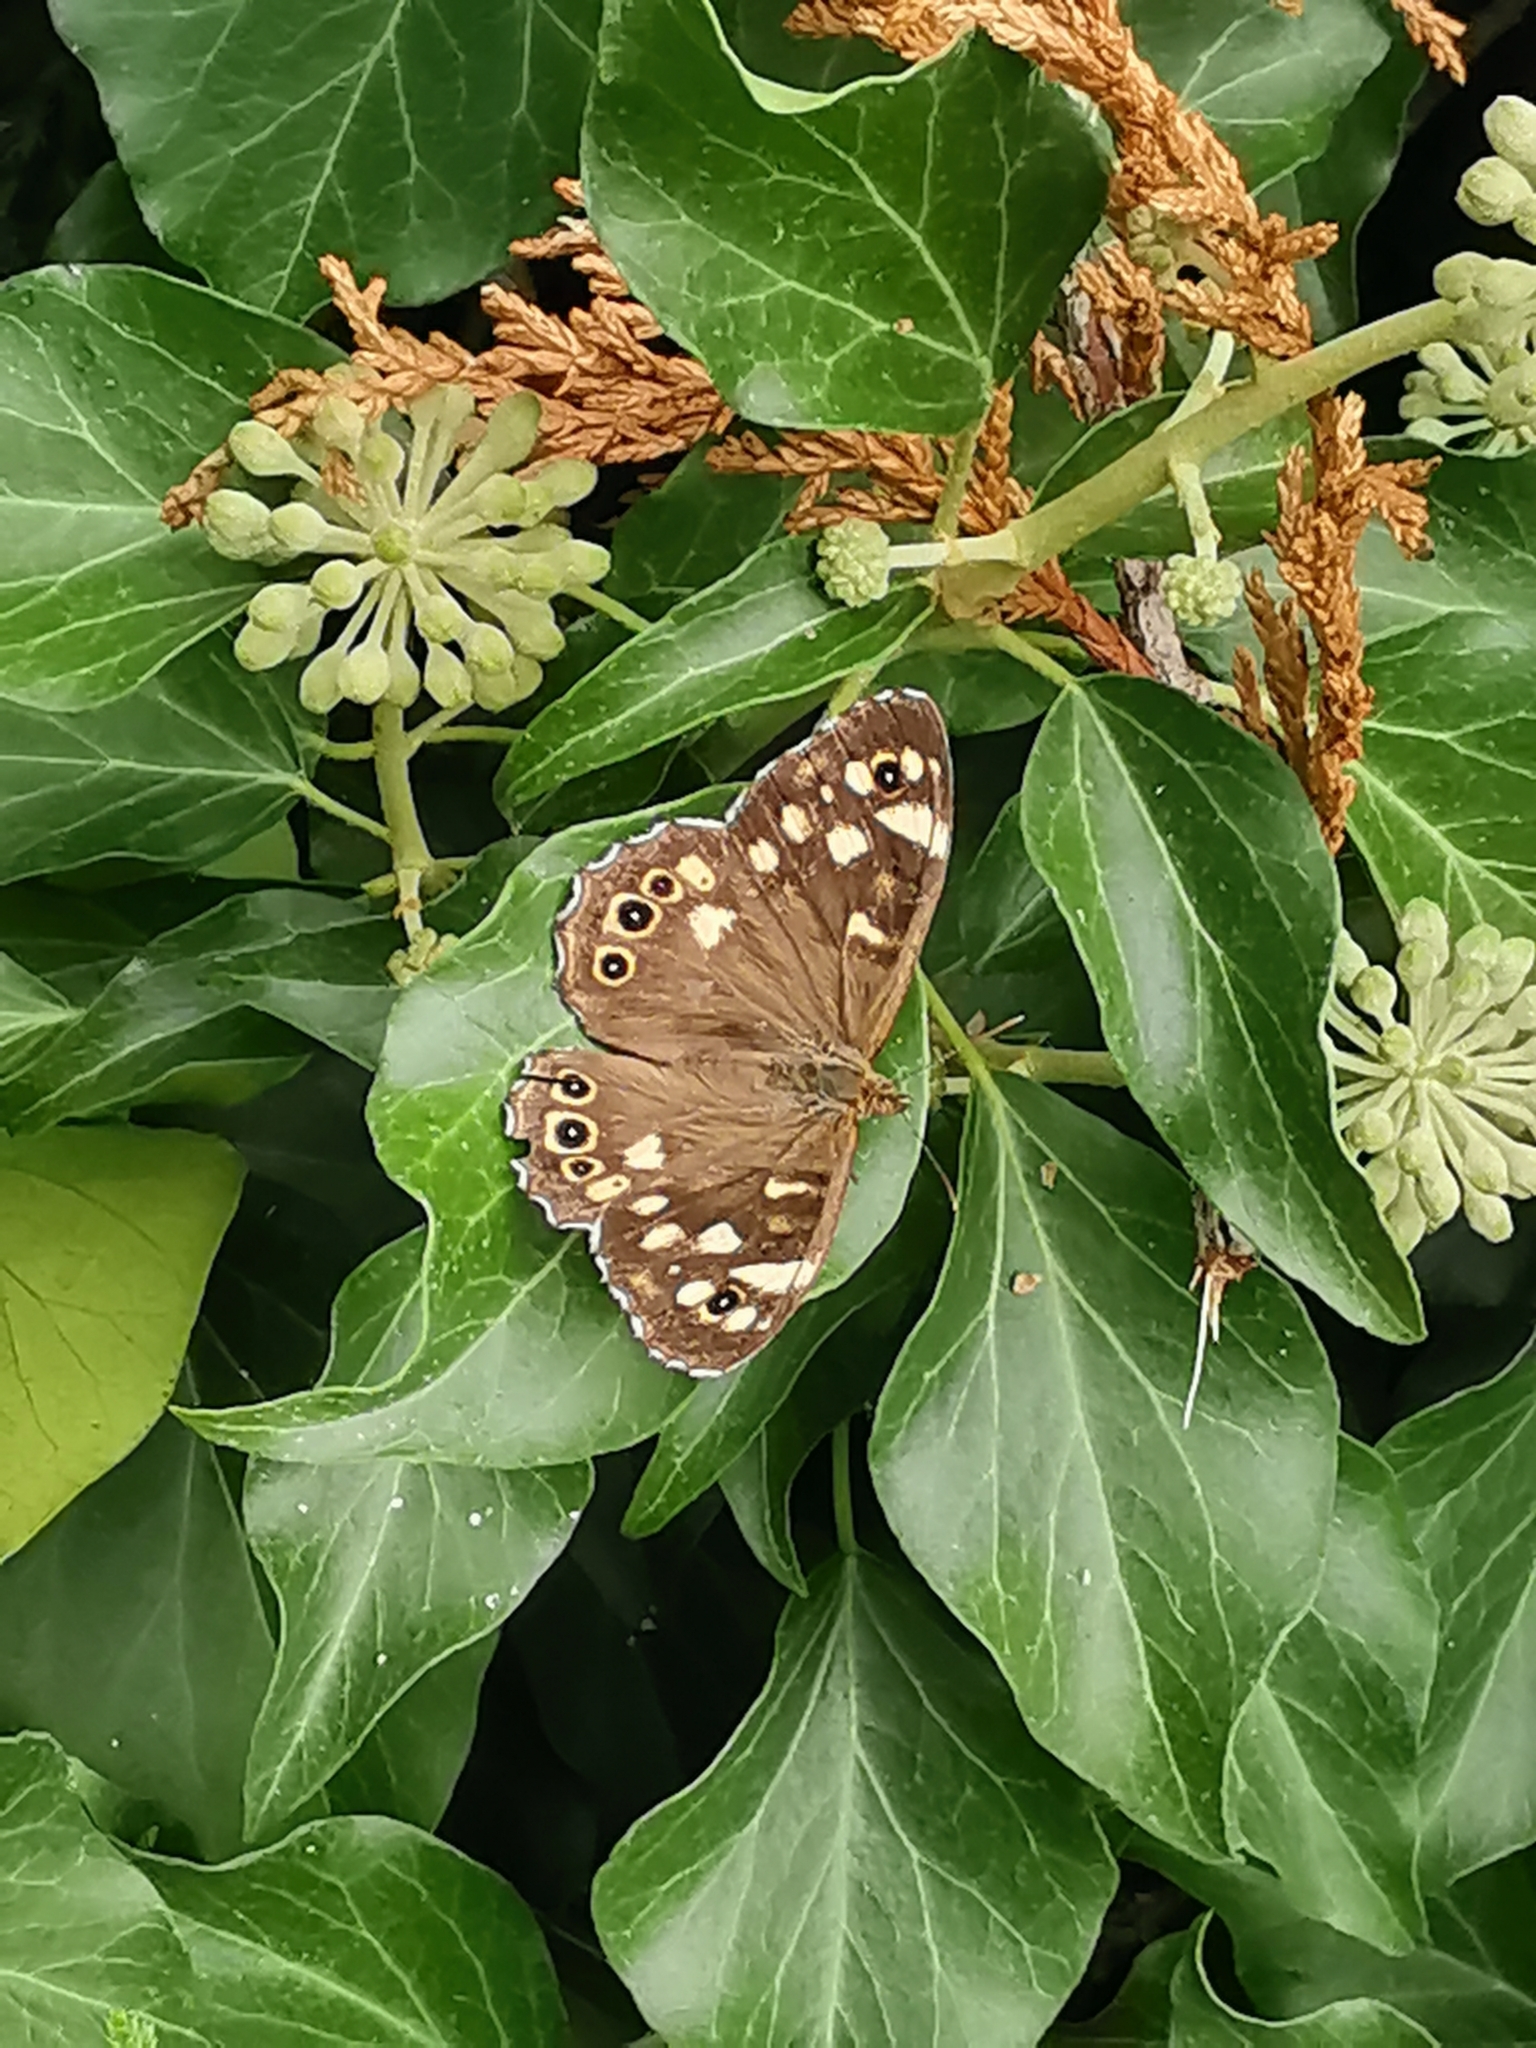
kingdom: Animalia
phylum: Arthropoda
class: Insecta
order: Lepidoptera
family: Nymphalidae
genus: Pararge
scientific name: Pararge aegeria
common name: Speckled wood
